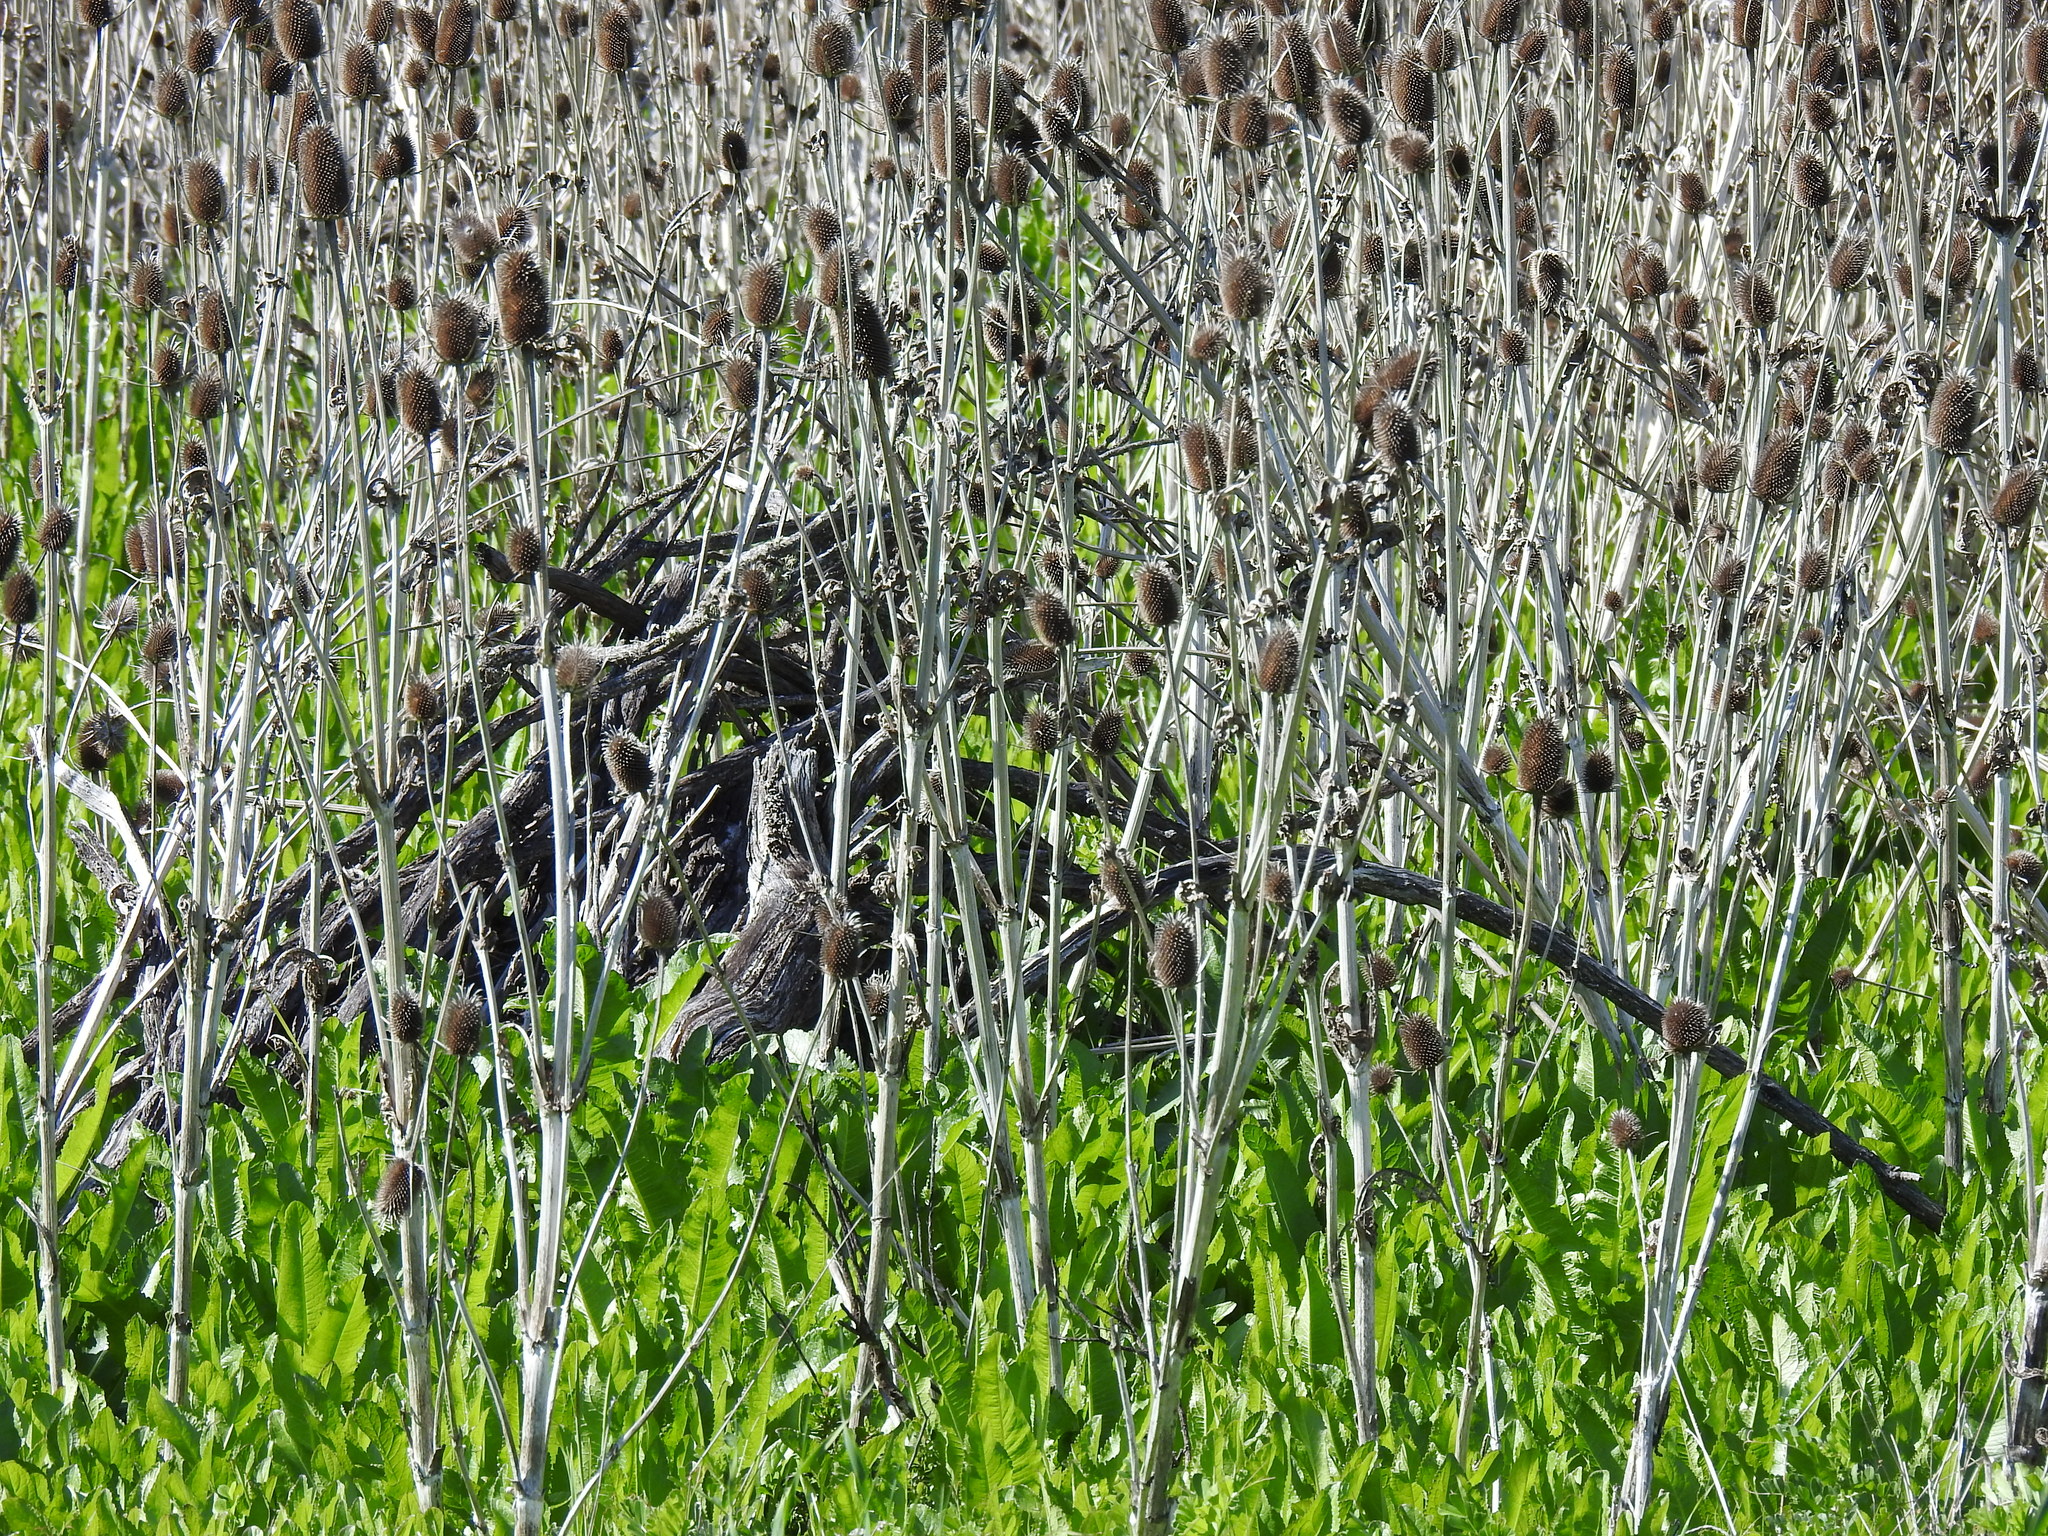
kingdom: Plantae
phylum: Tracheophyta
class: Magnoliopsida
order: Dipsacales
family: Caprifoliaceae
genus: Dipsacus
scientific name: Dipsacus sativus
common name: Fuller's teasel
